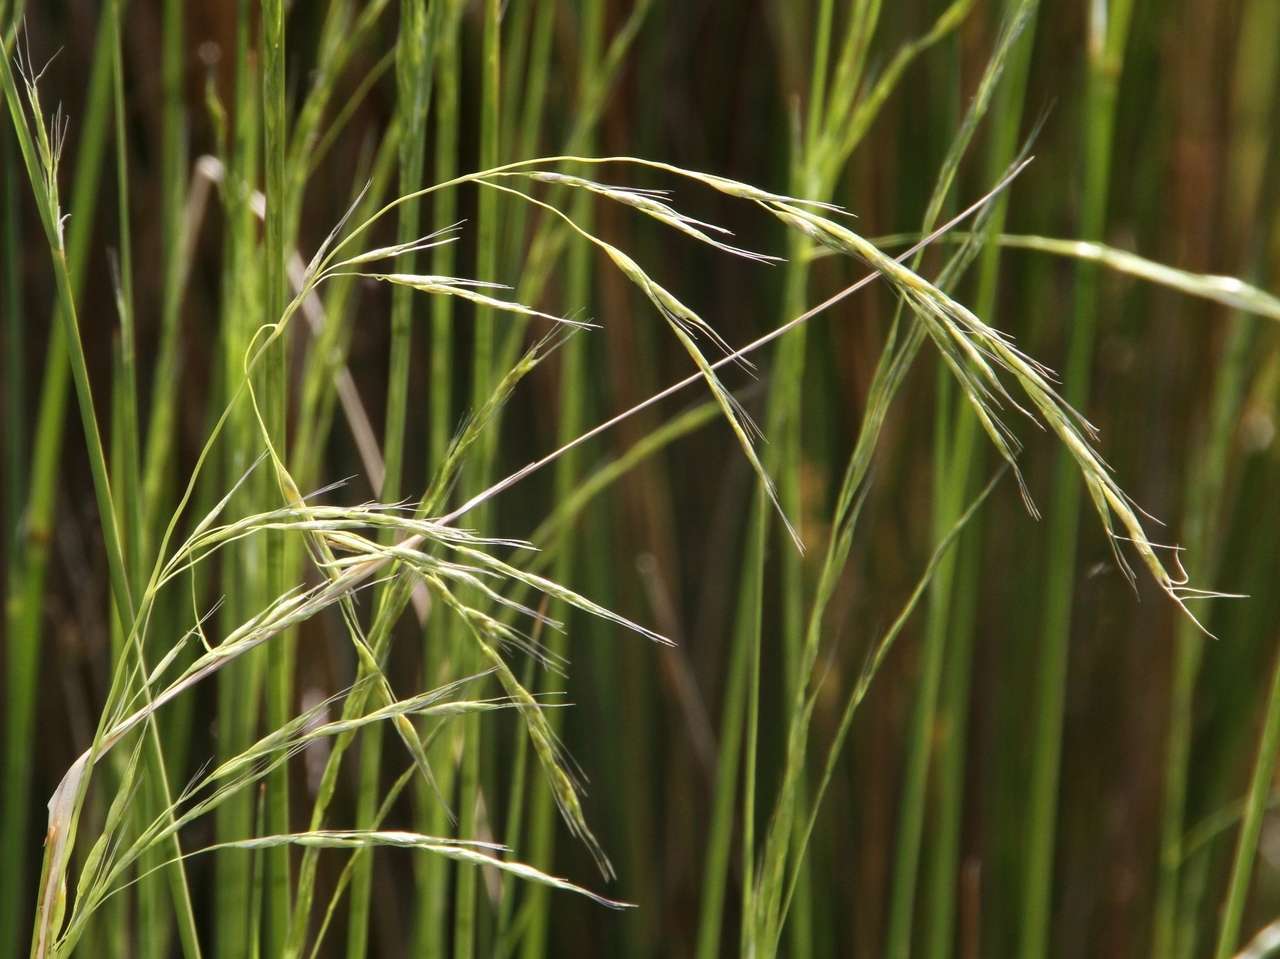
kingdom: Plantae
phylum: Tracheophyta
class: Liliopsida
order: Poales
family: Poaceae
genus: Amphibromus
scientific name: Amphibromus nervosus
